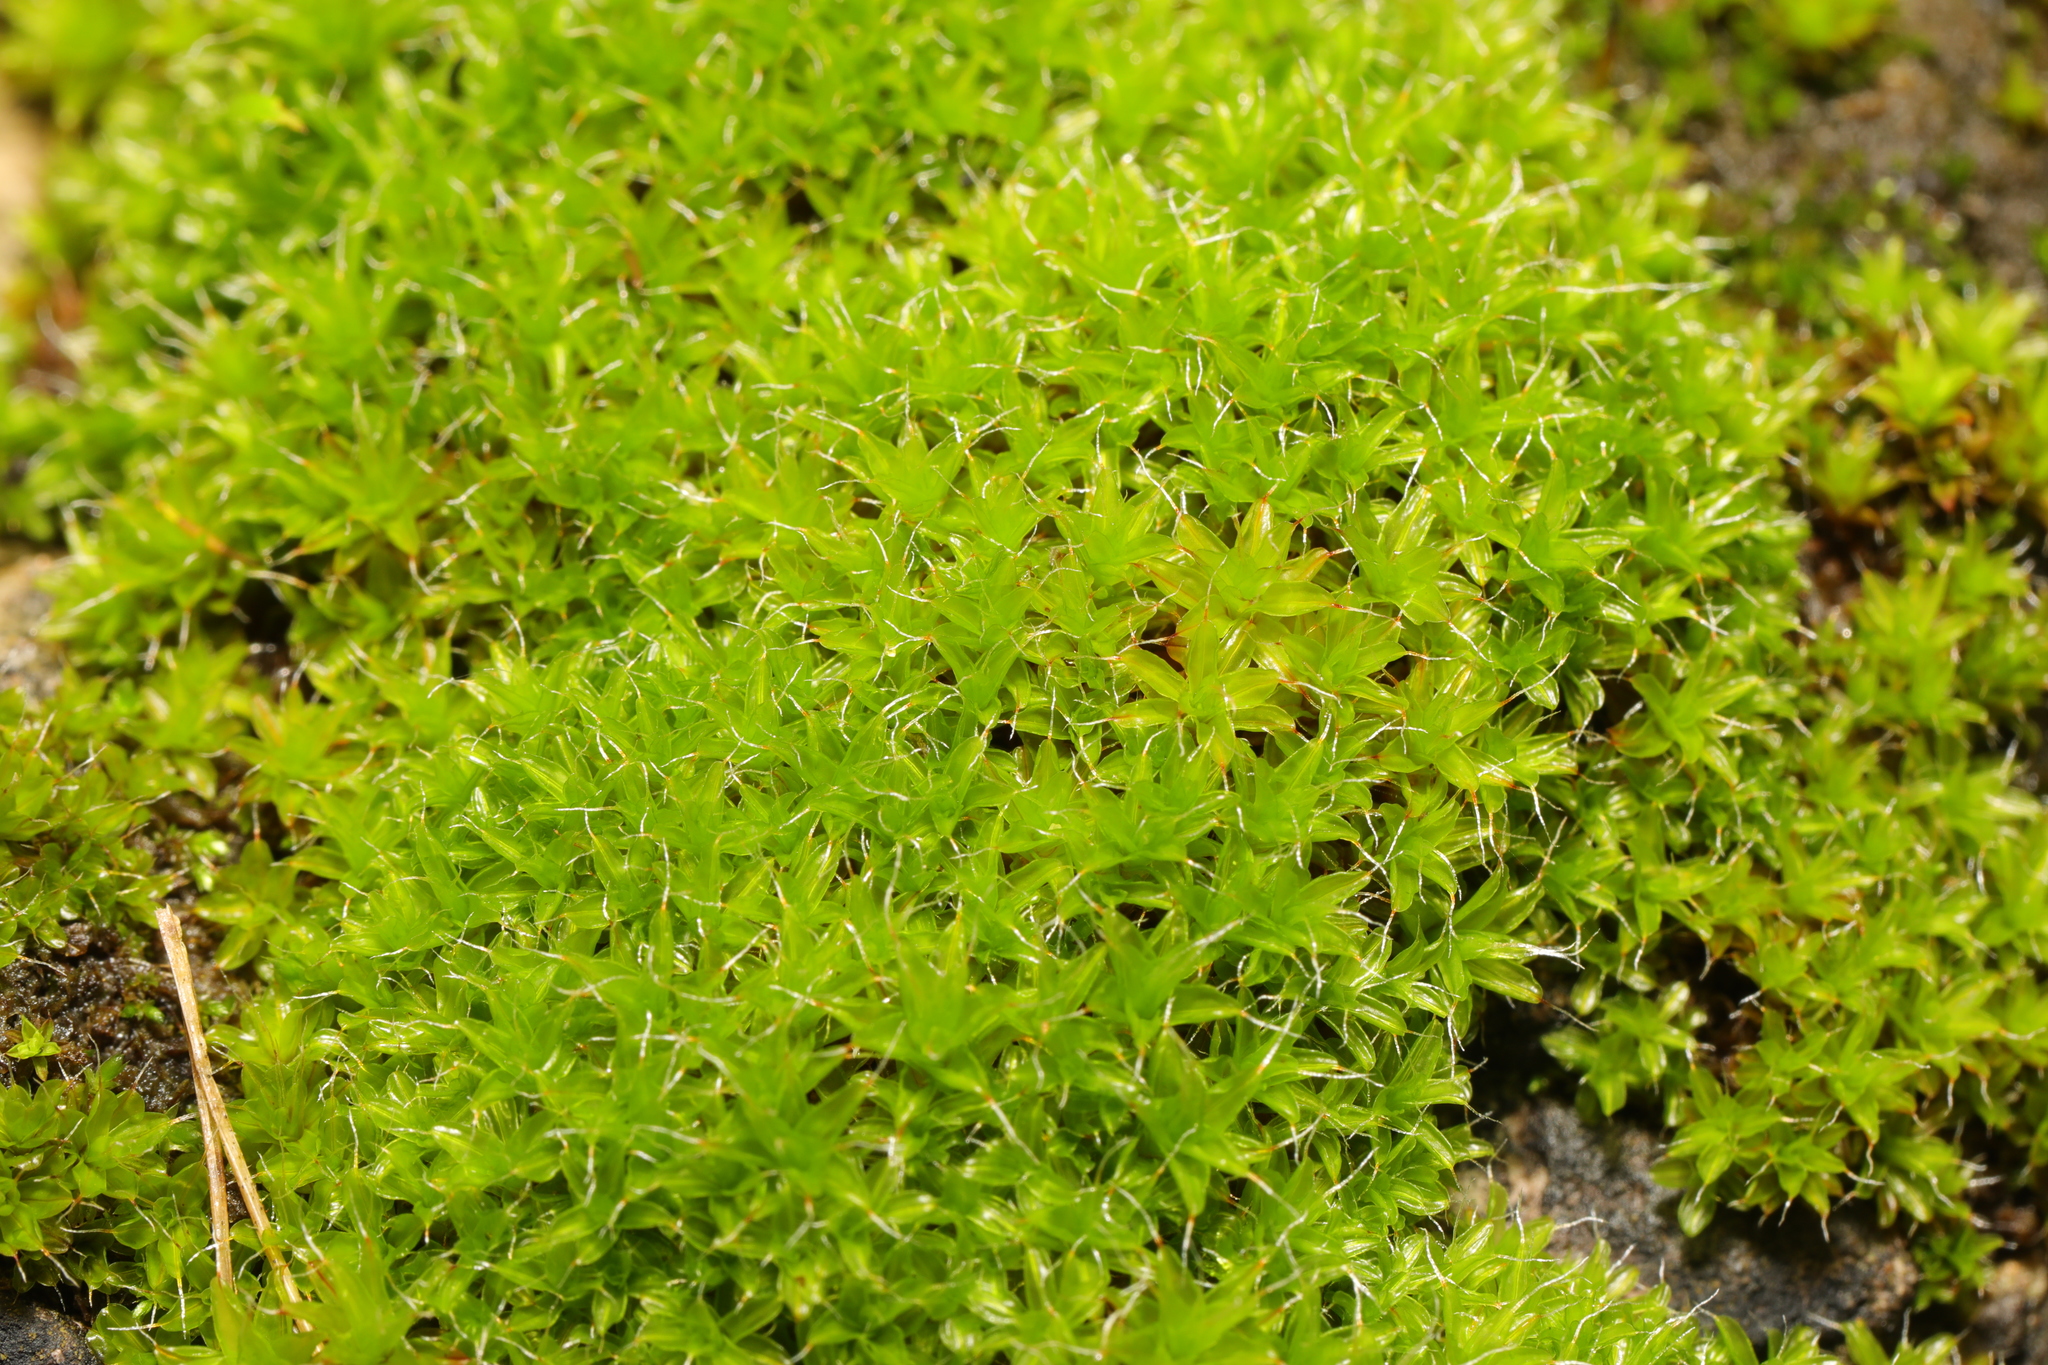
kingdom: Plantae
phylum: Bryophyta
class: Bryopsida
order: Pottiales
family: Pottiaceae
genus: Syntrichia
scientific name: Syntrichia ruralis
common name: Sidewalk screw moss
